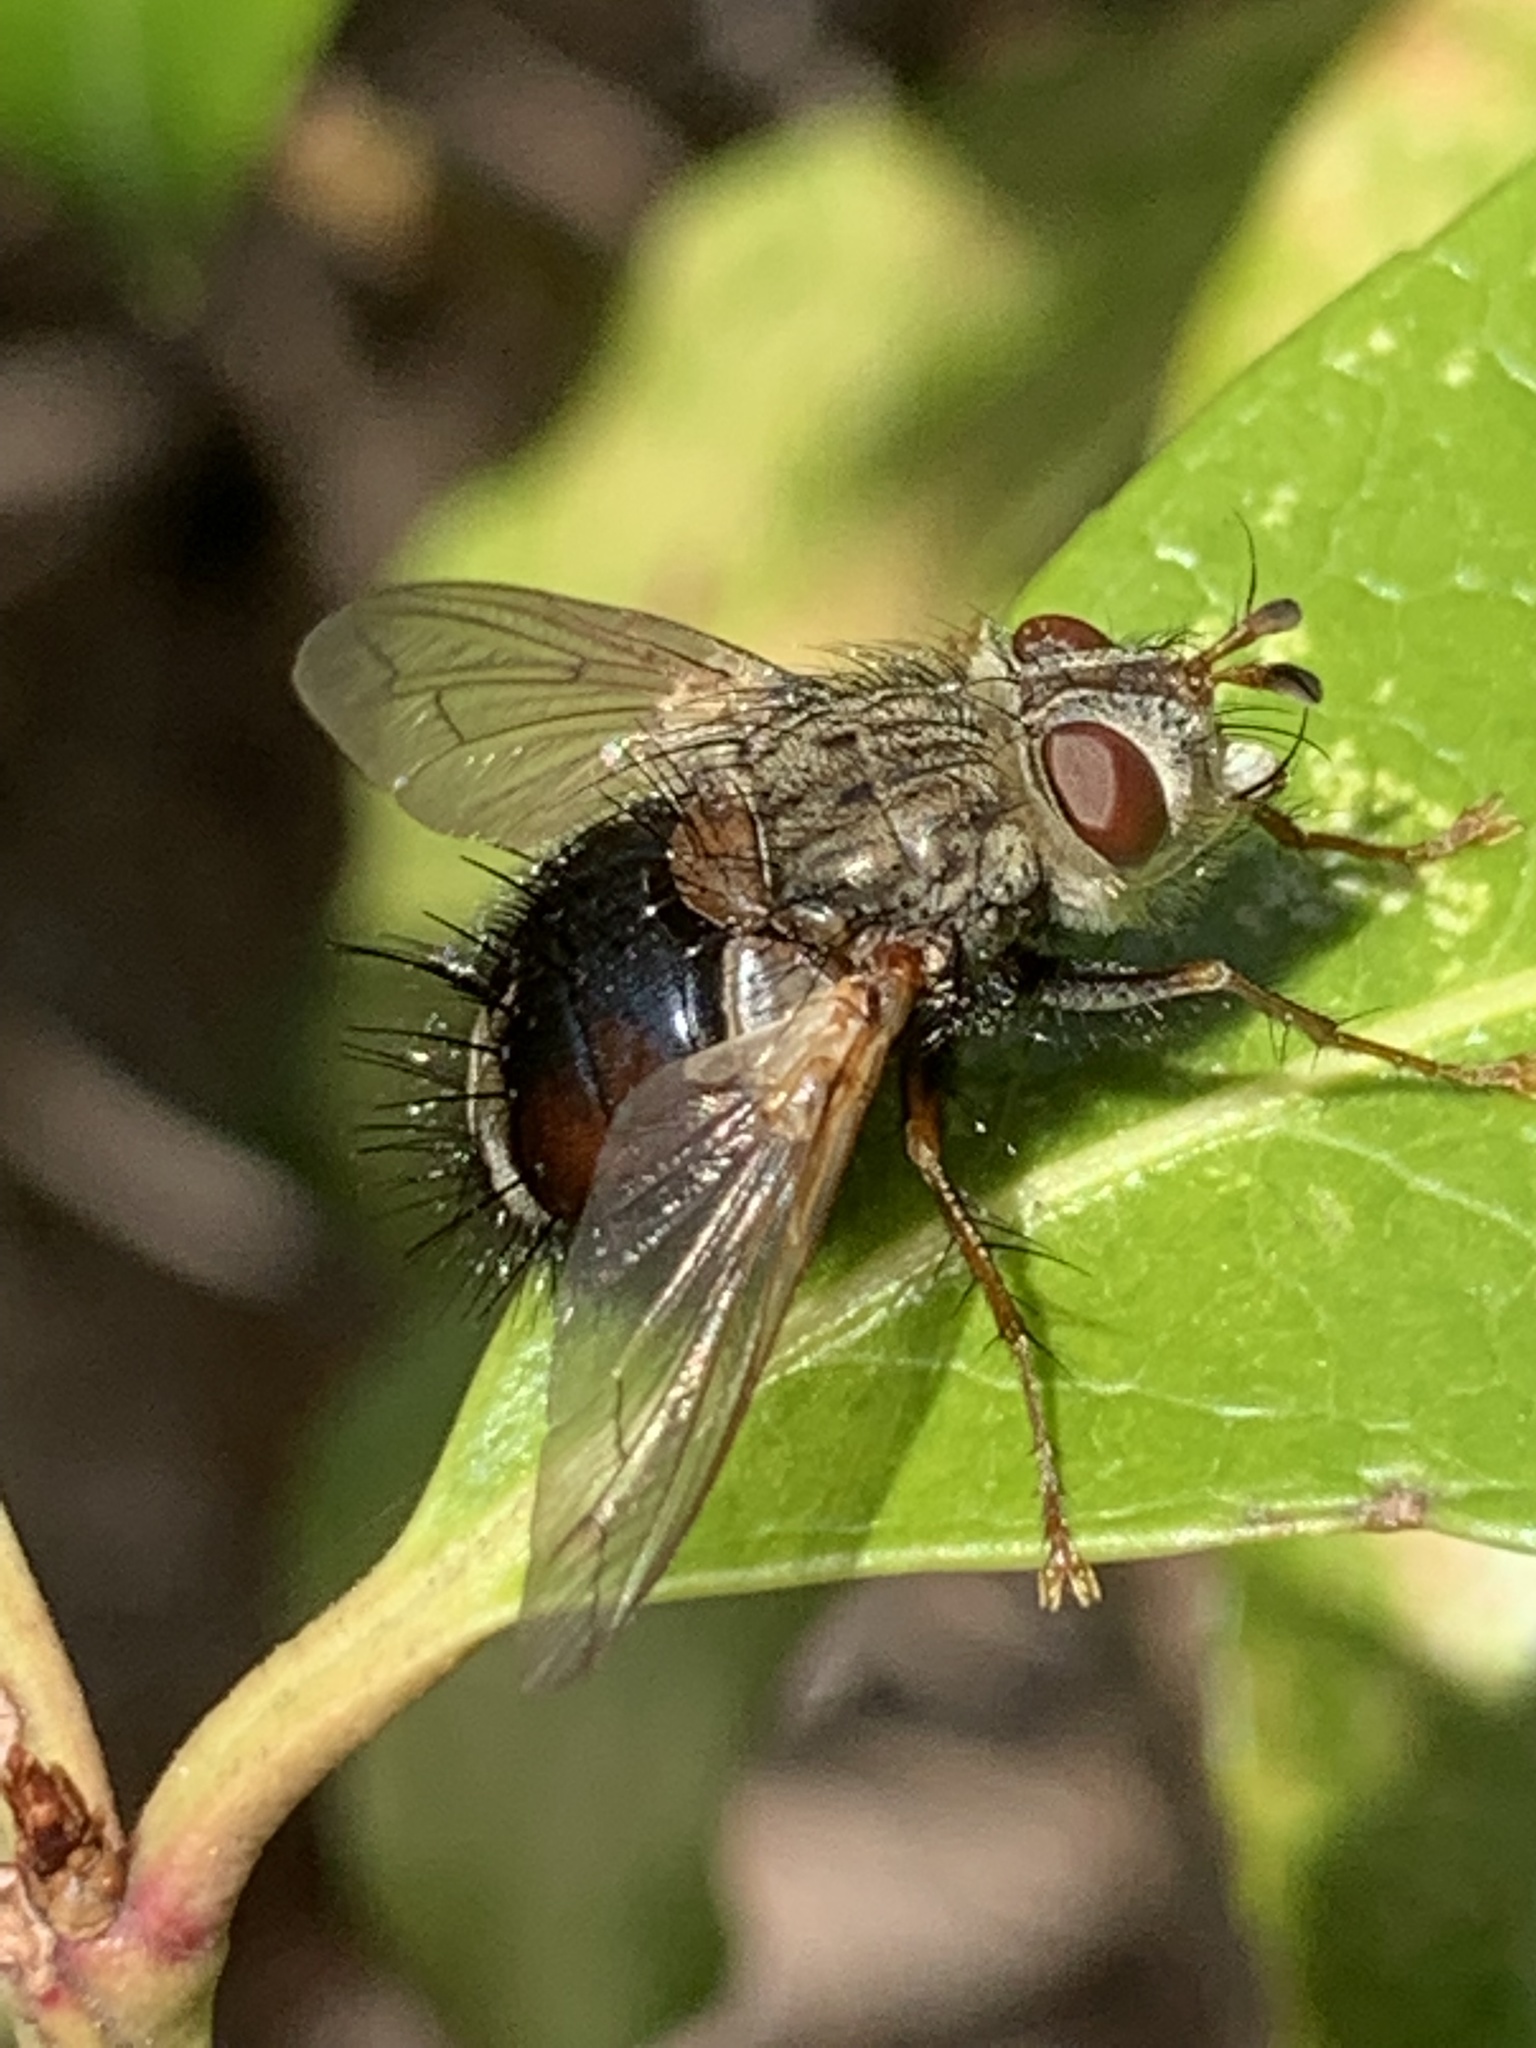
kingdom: Animalia
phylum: Arthropoda
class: Insecta
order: Diptera
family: Tachinidae
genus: Epalpus
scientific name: Epalpus signifer
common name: Early tachinid fly
